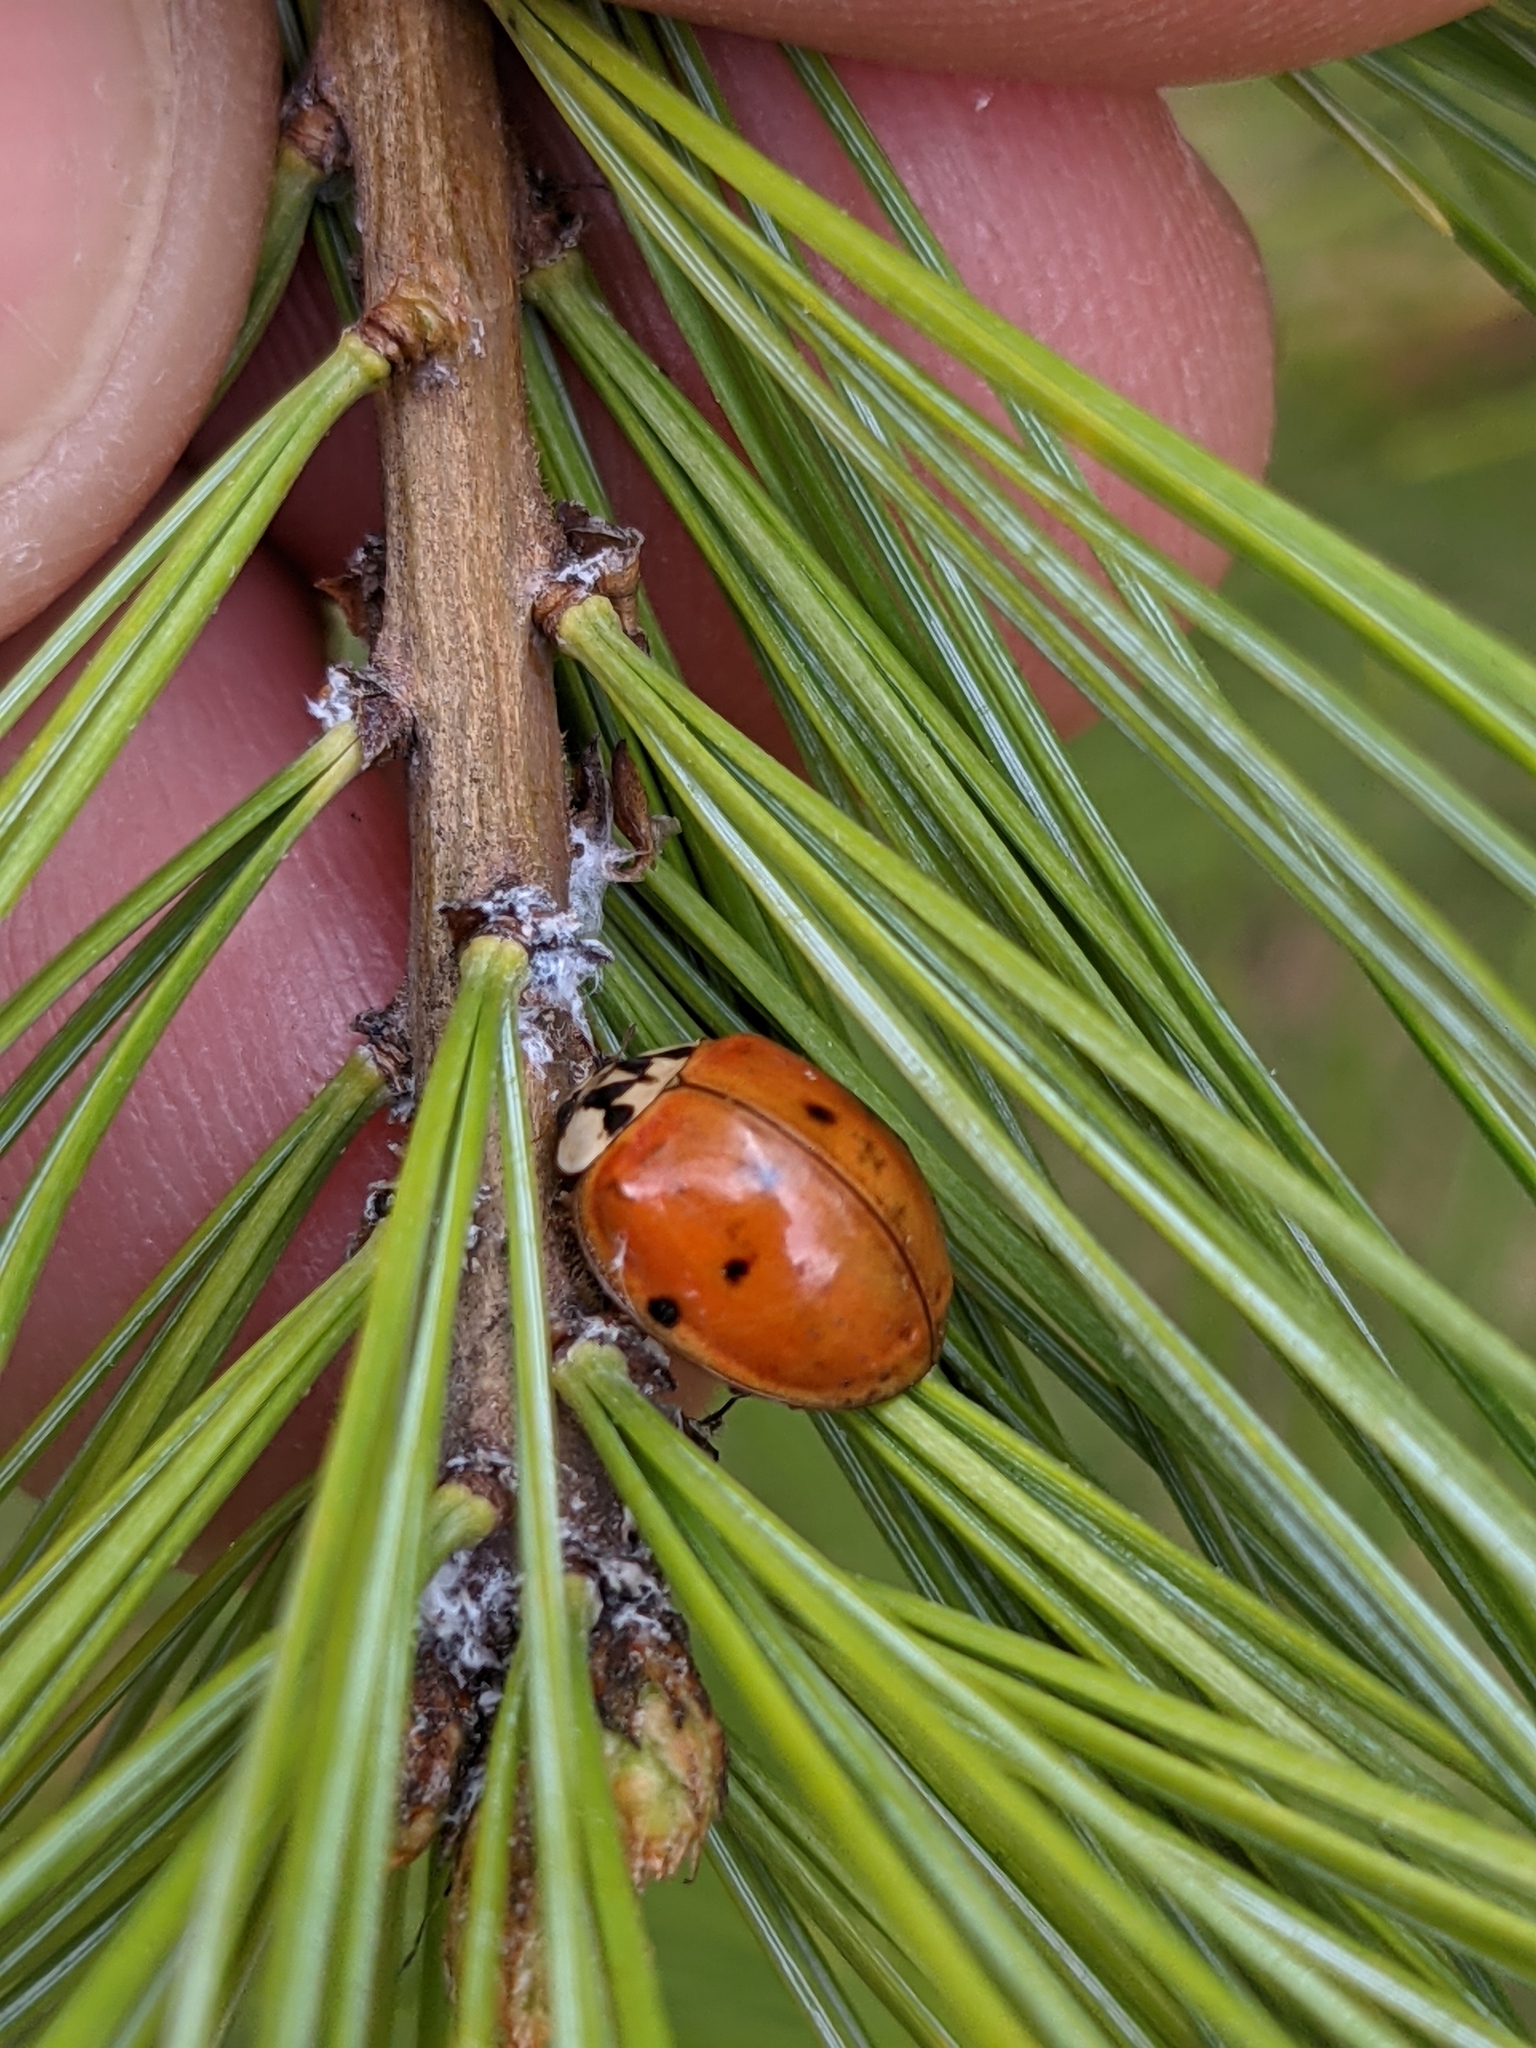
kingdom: Animalia
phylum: Arthropoda
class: Insecta
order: Coleoptera
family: Coccinellidae
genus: Harmonia
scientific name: Harmonia axyridis
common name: Harlequin ladybird
